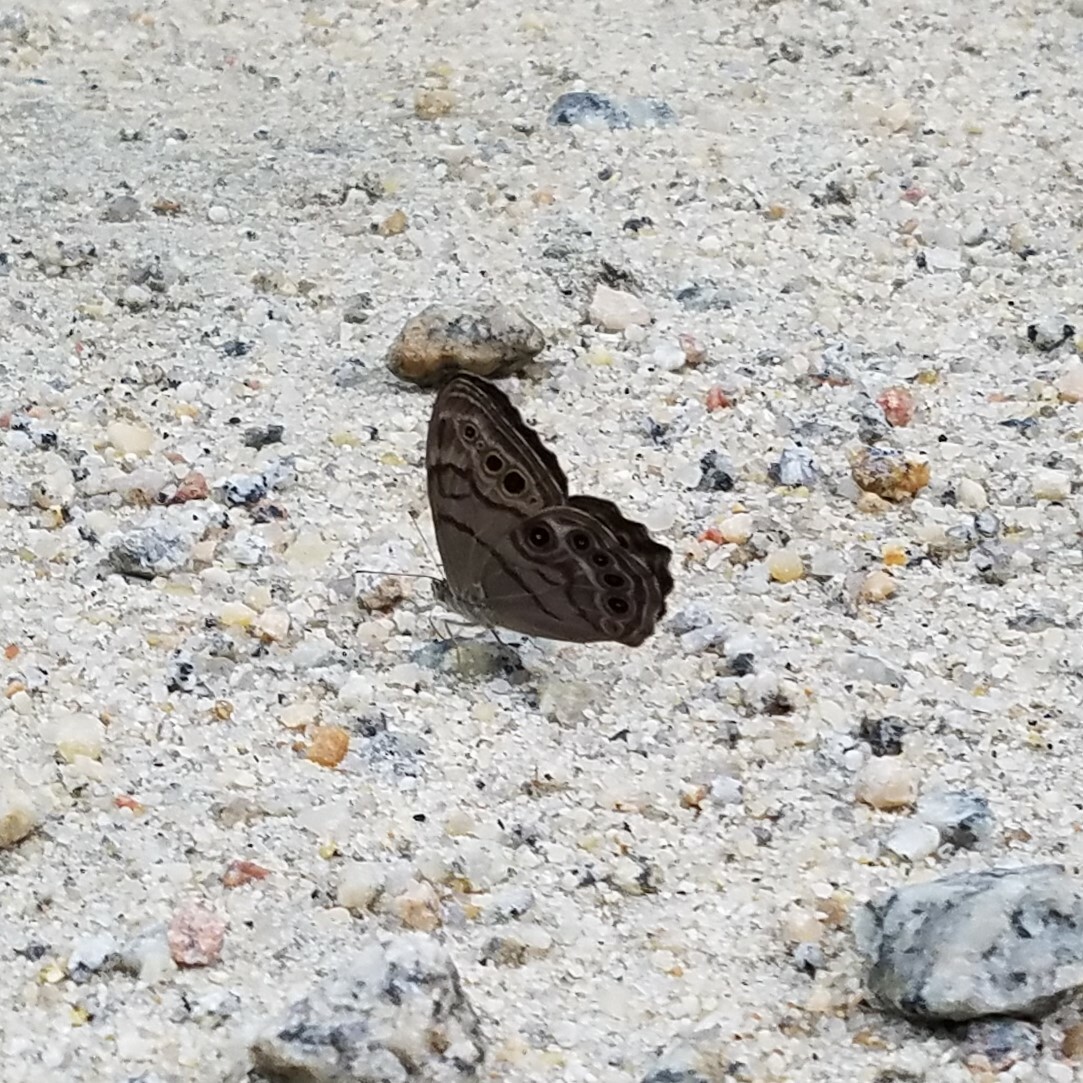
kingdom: Animalia
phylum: Arthropoda
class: Insecta
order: Lepidoptera
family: Nymphalidae
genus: Lethe
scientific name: Lethe anthedon
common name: Northern pearly-eye
